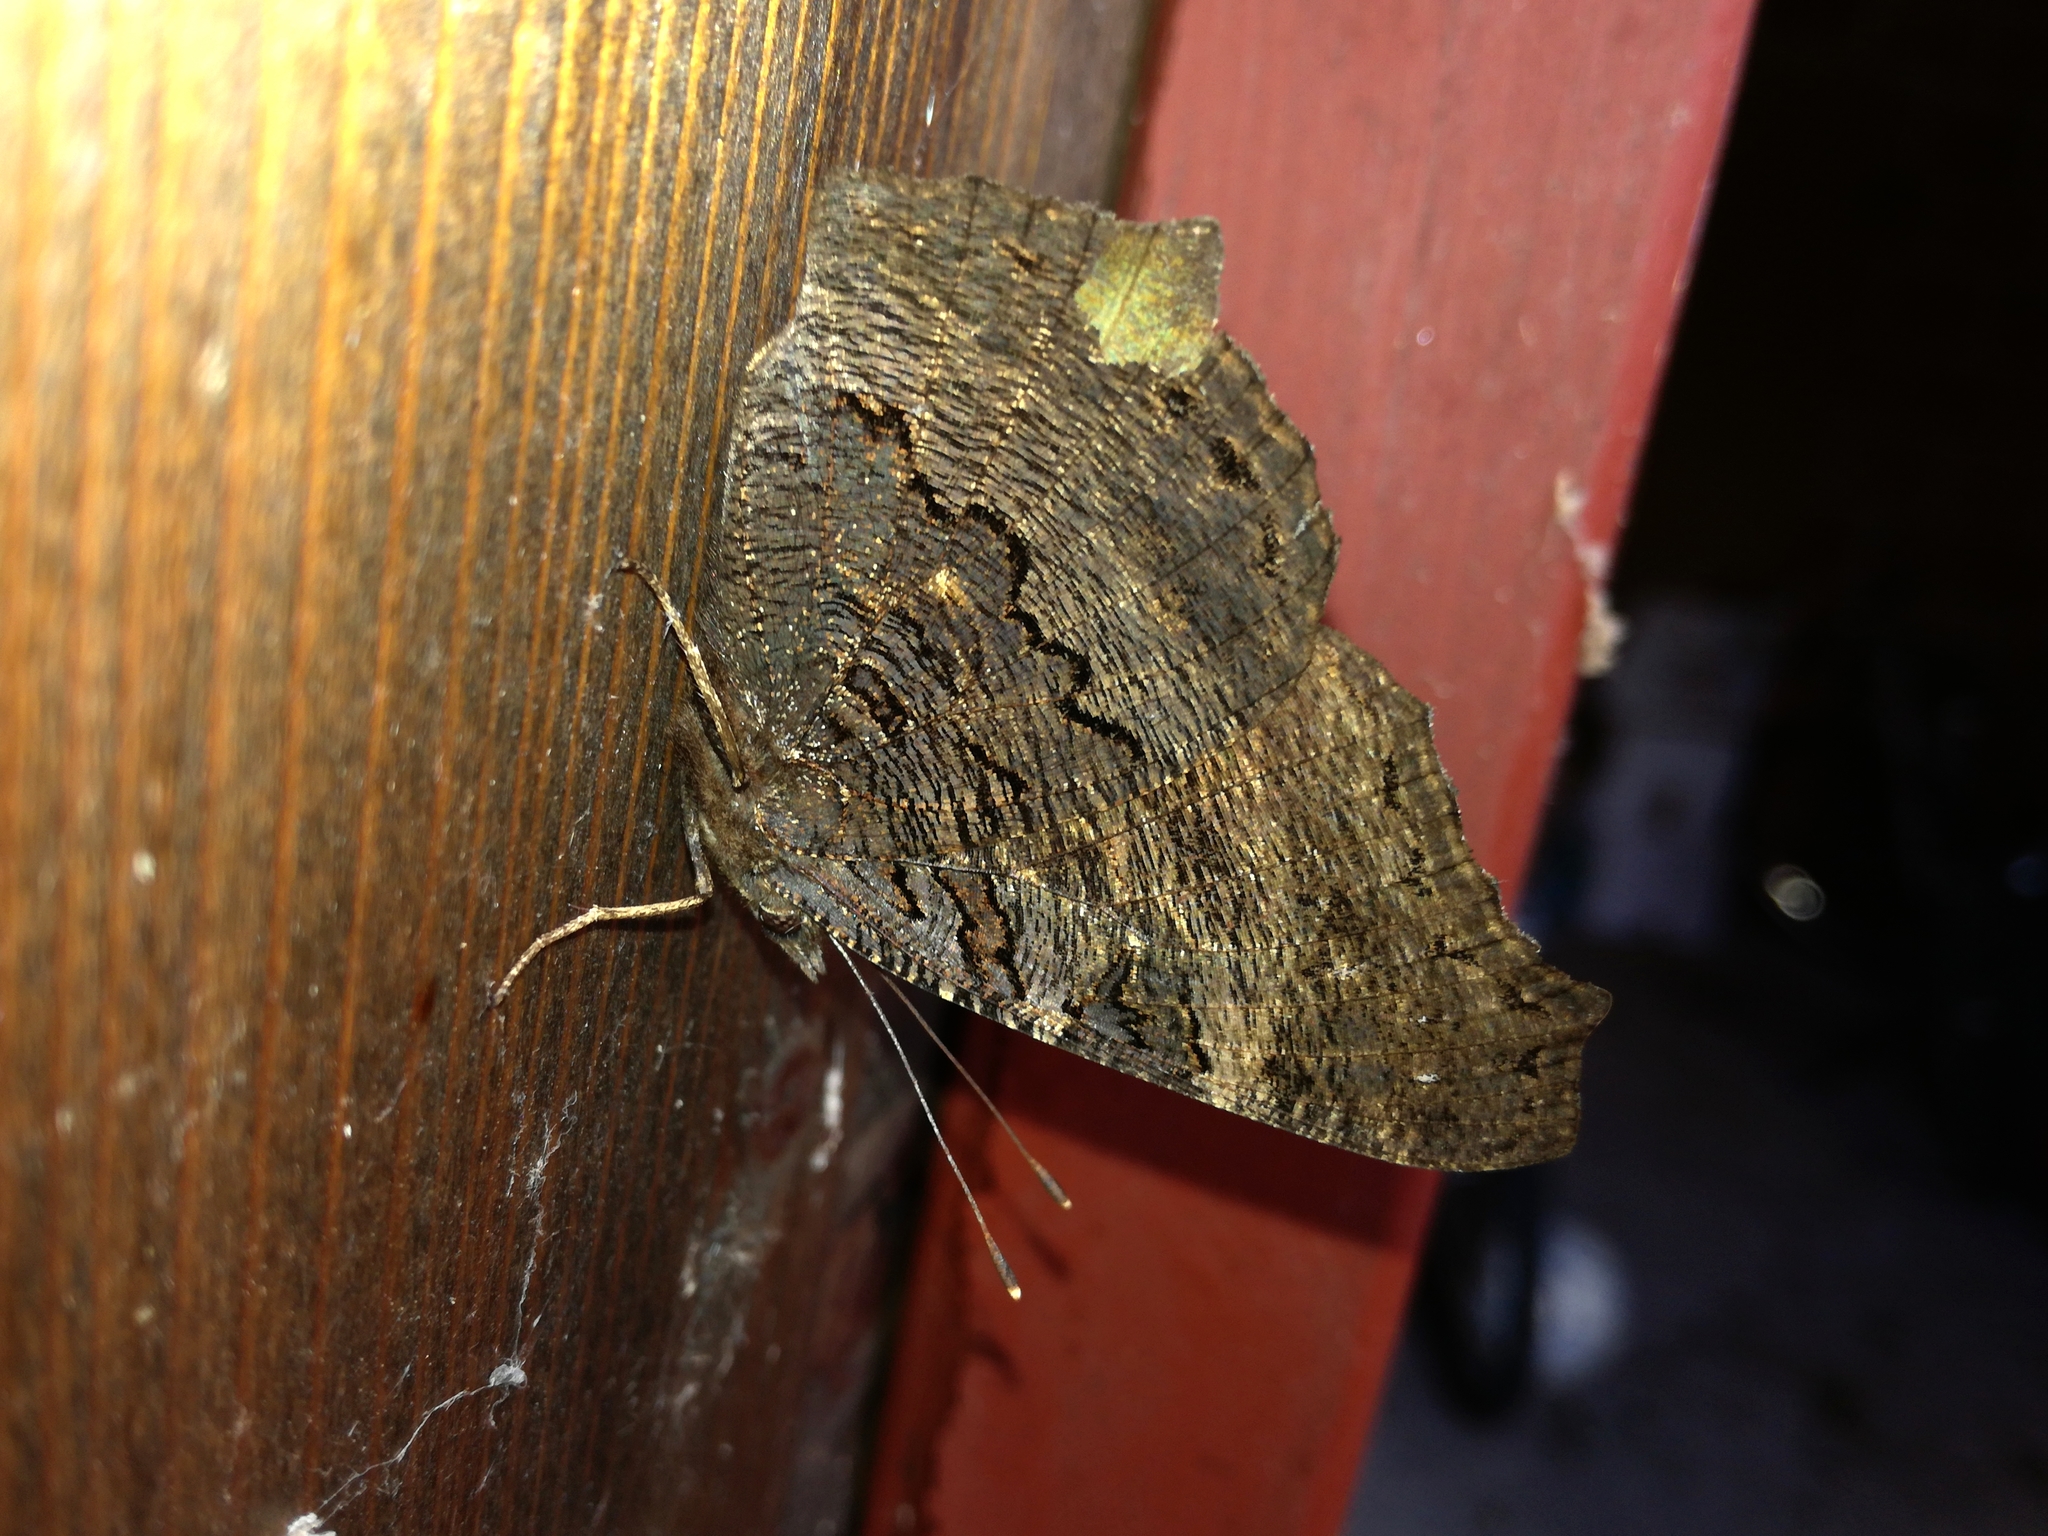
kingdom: Animalia
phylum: Arthropoda
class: Insecta
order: Lepidoptera
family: Nymphalidae
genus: Aglais
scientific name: Aglais io
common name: Peacock
